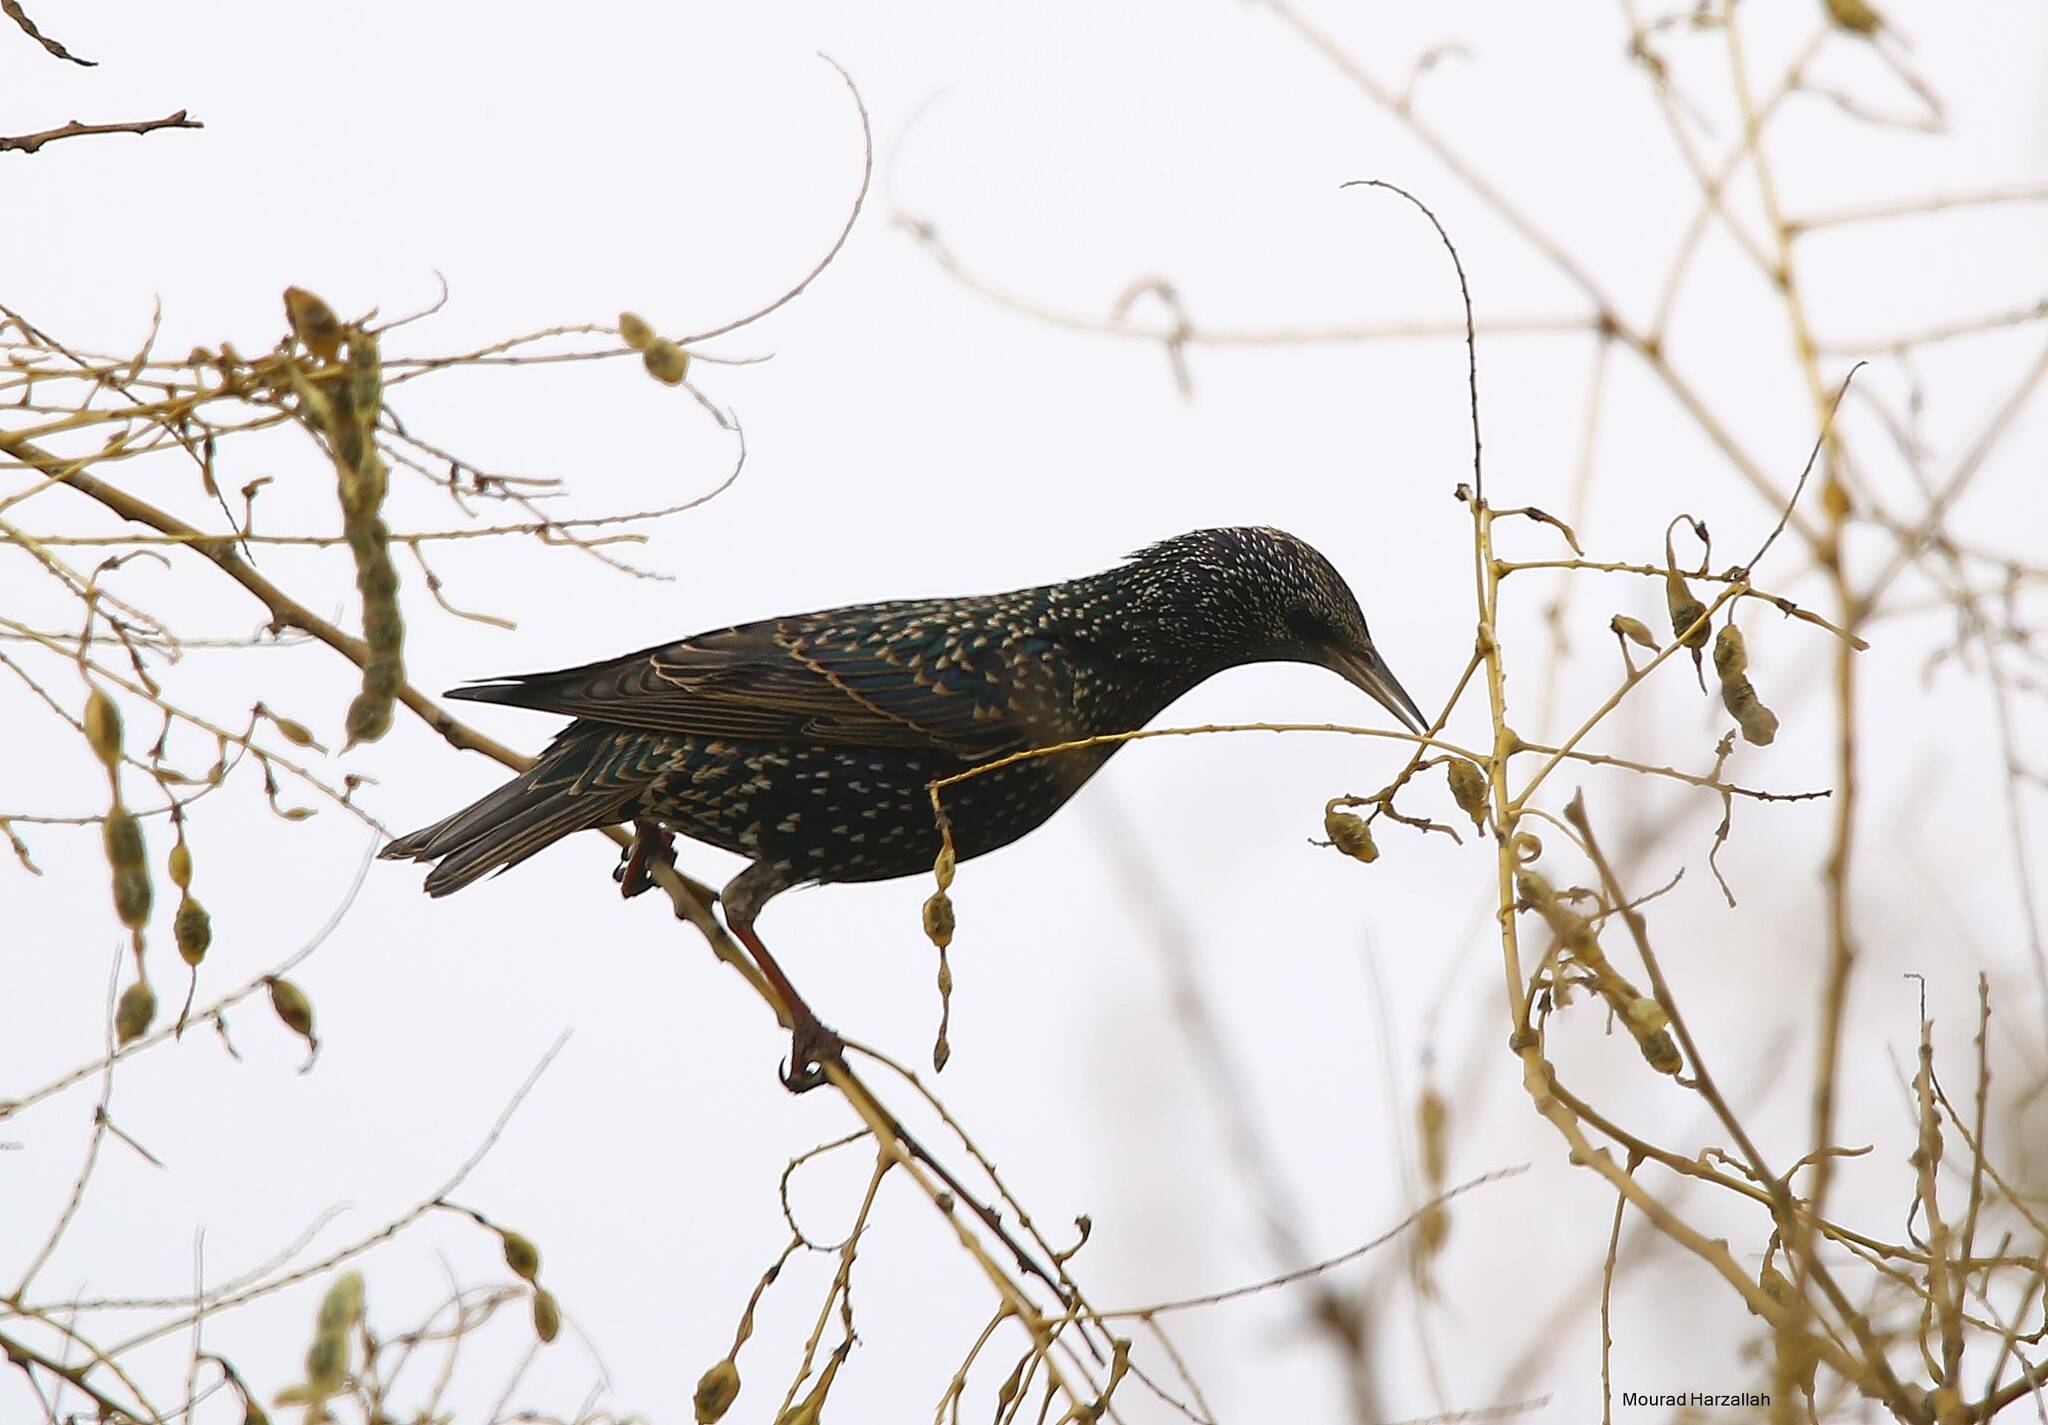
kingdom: Animalia
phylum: Chordata
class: Aves
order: Passeriformes
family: Sturnidae
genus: Sturnus
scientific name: Sturnus vulgaris
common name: Common starling
